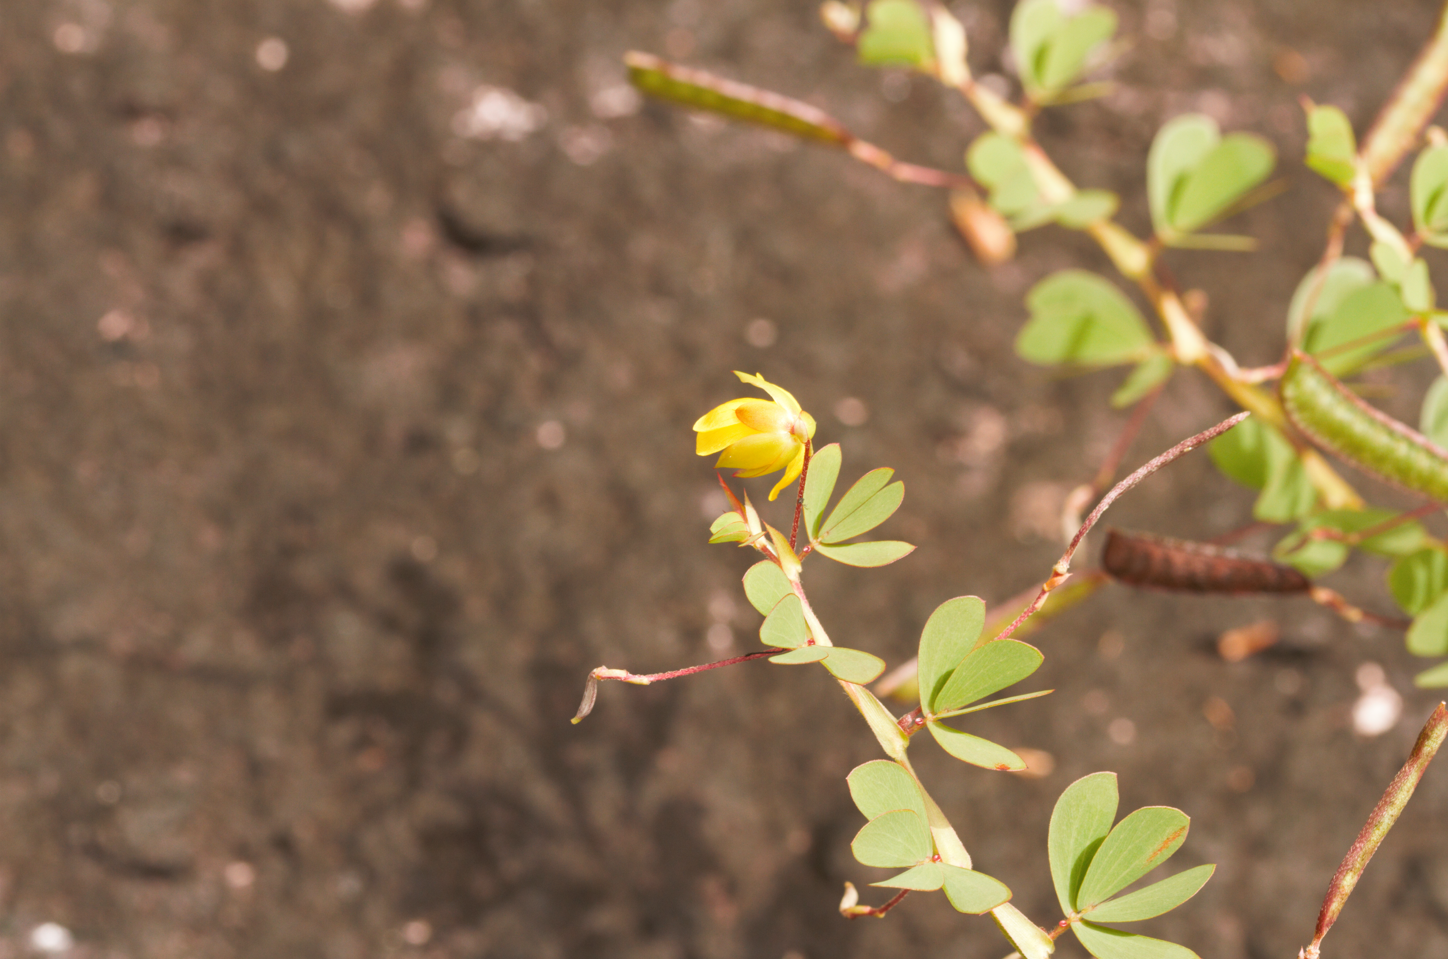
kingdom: Plantae
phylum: Tracheophyta
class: Magnoliopsida
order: Fabales
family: Fabaceae
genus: Chamaecrista
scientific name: Chamaecrista desvauxii
